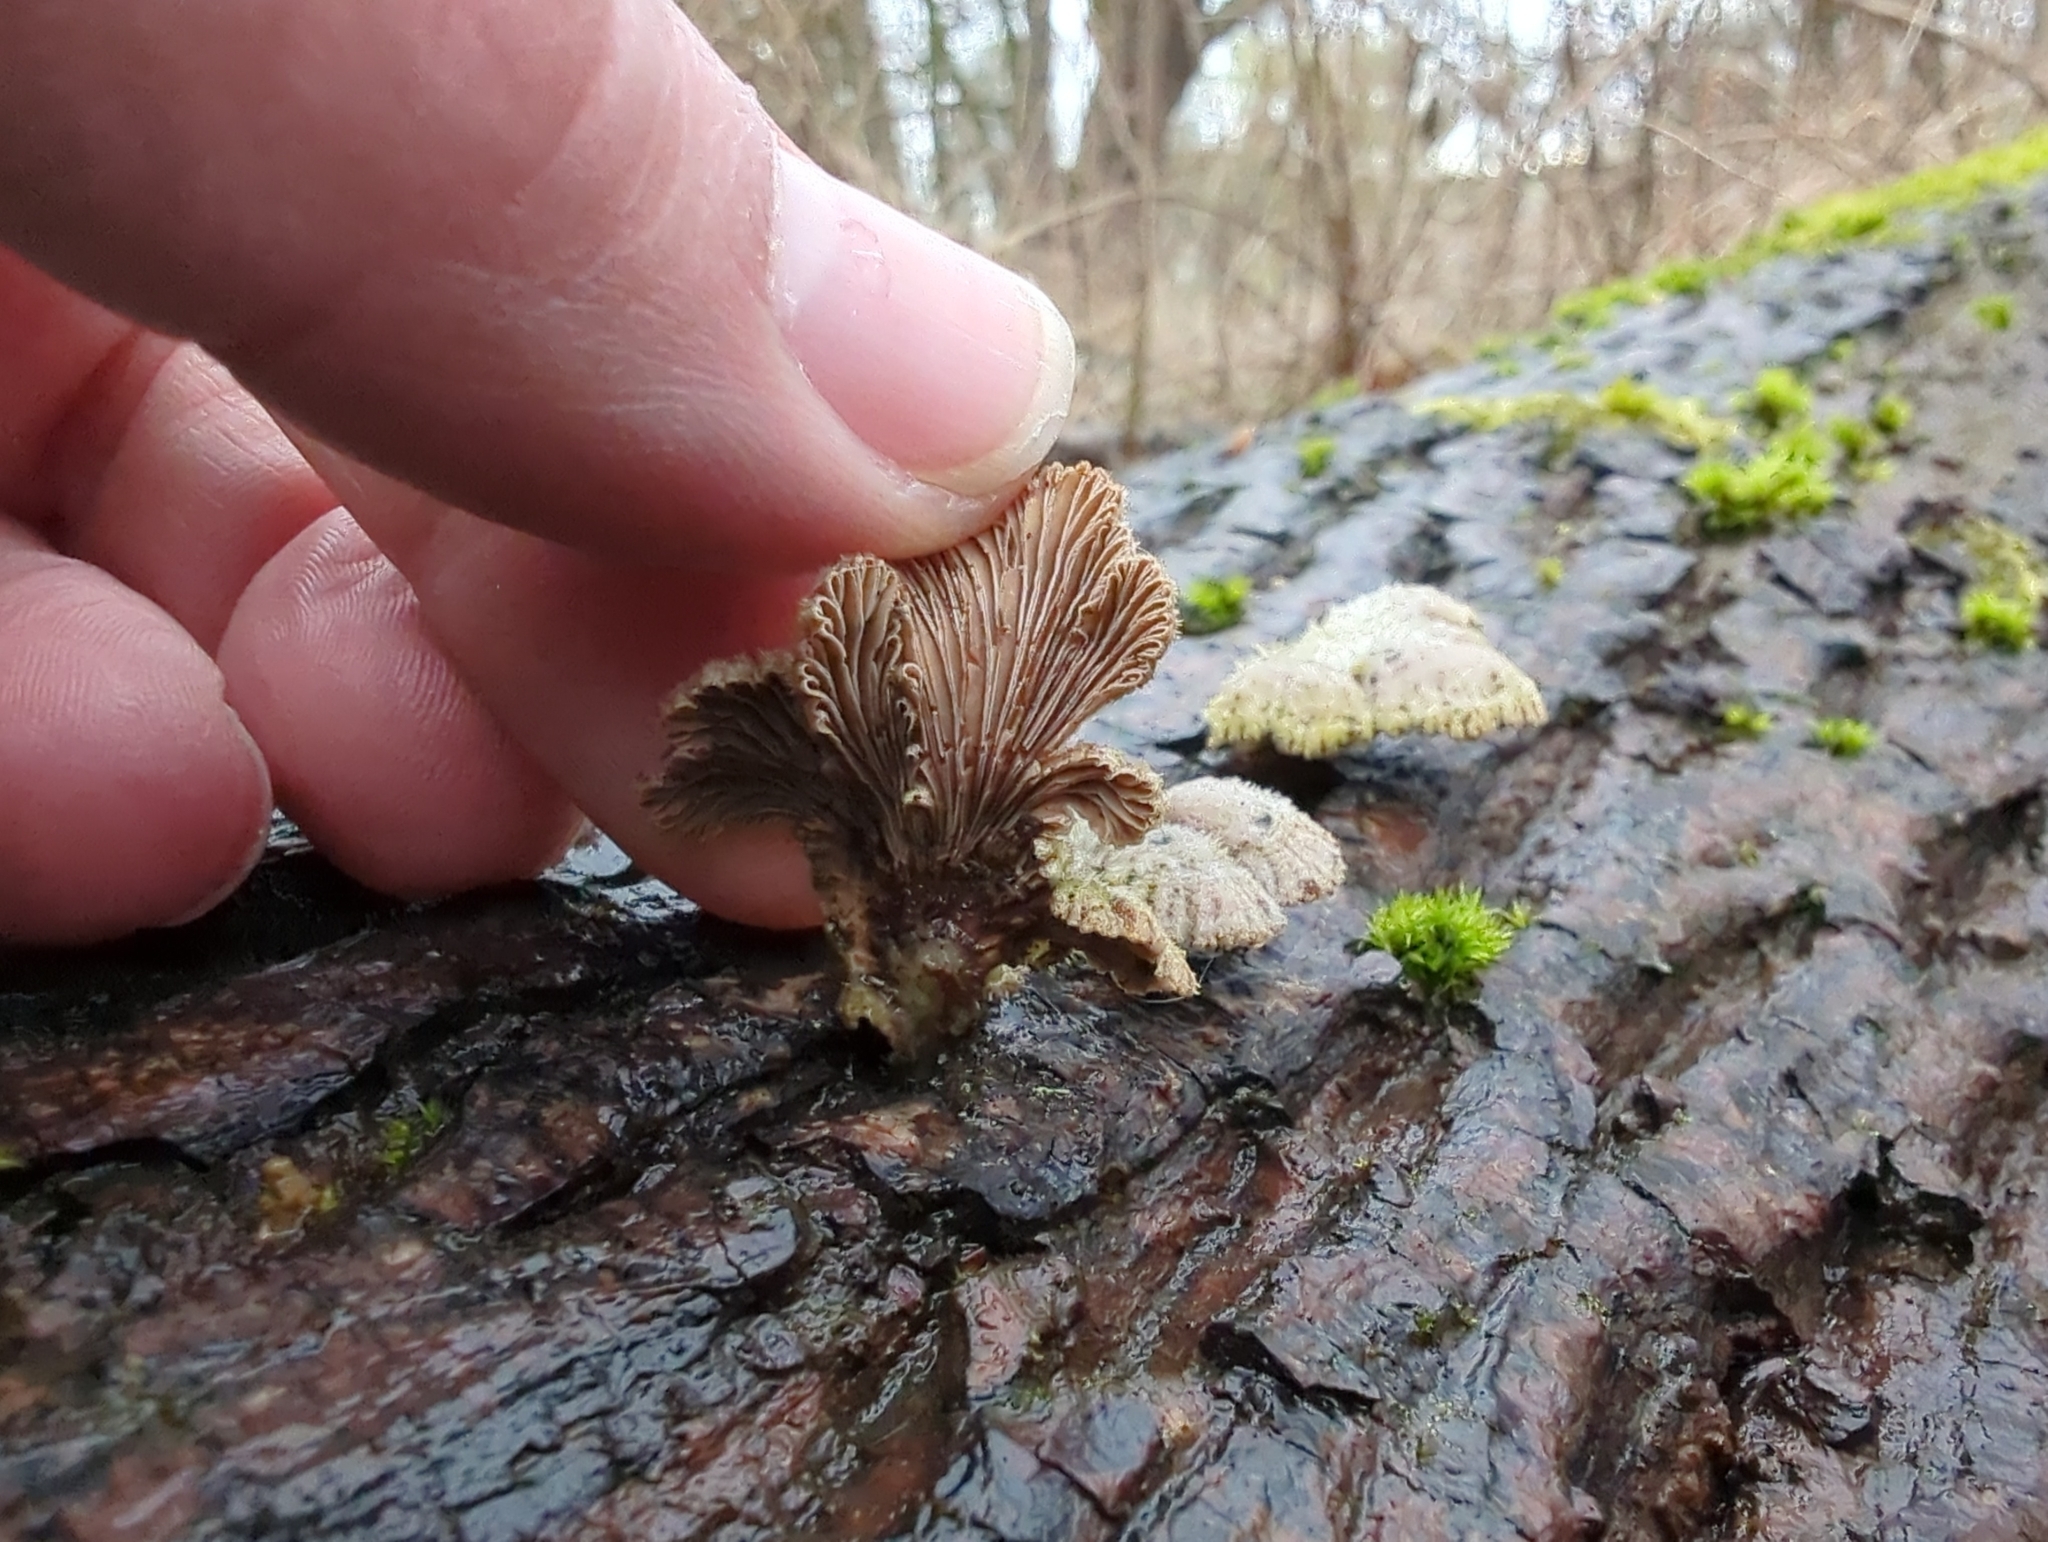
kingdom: Fungi
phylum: Basidiomycota
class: Agaricomycetes
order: Agaricales
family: Schizophyllaceae
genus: Schizophyllum
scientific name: Schizophyllum commune
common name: Common porecrust
